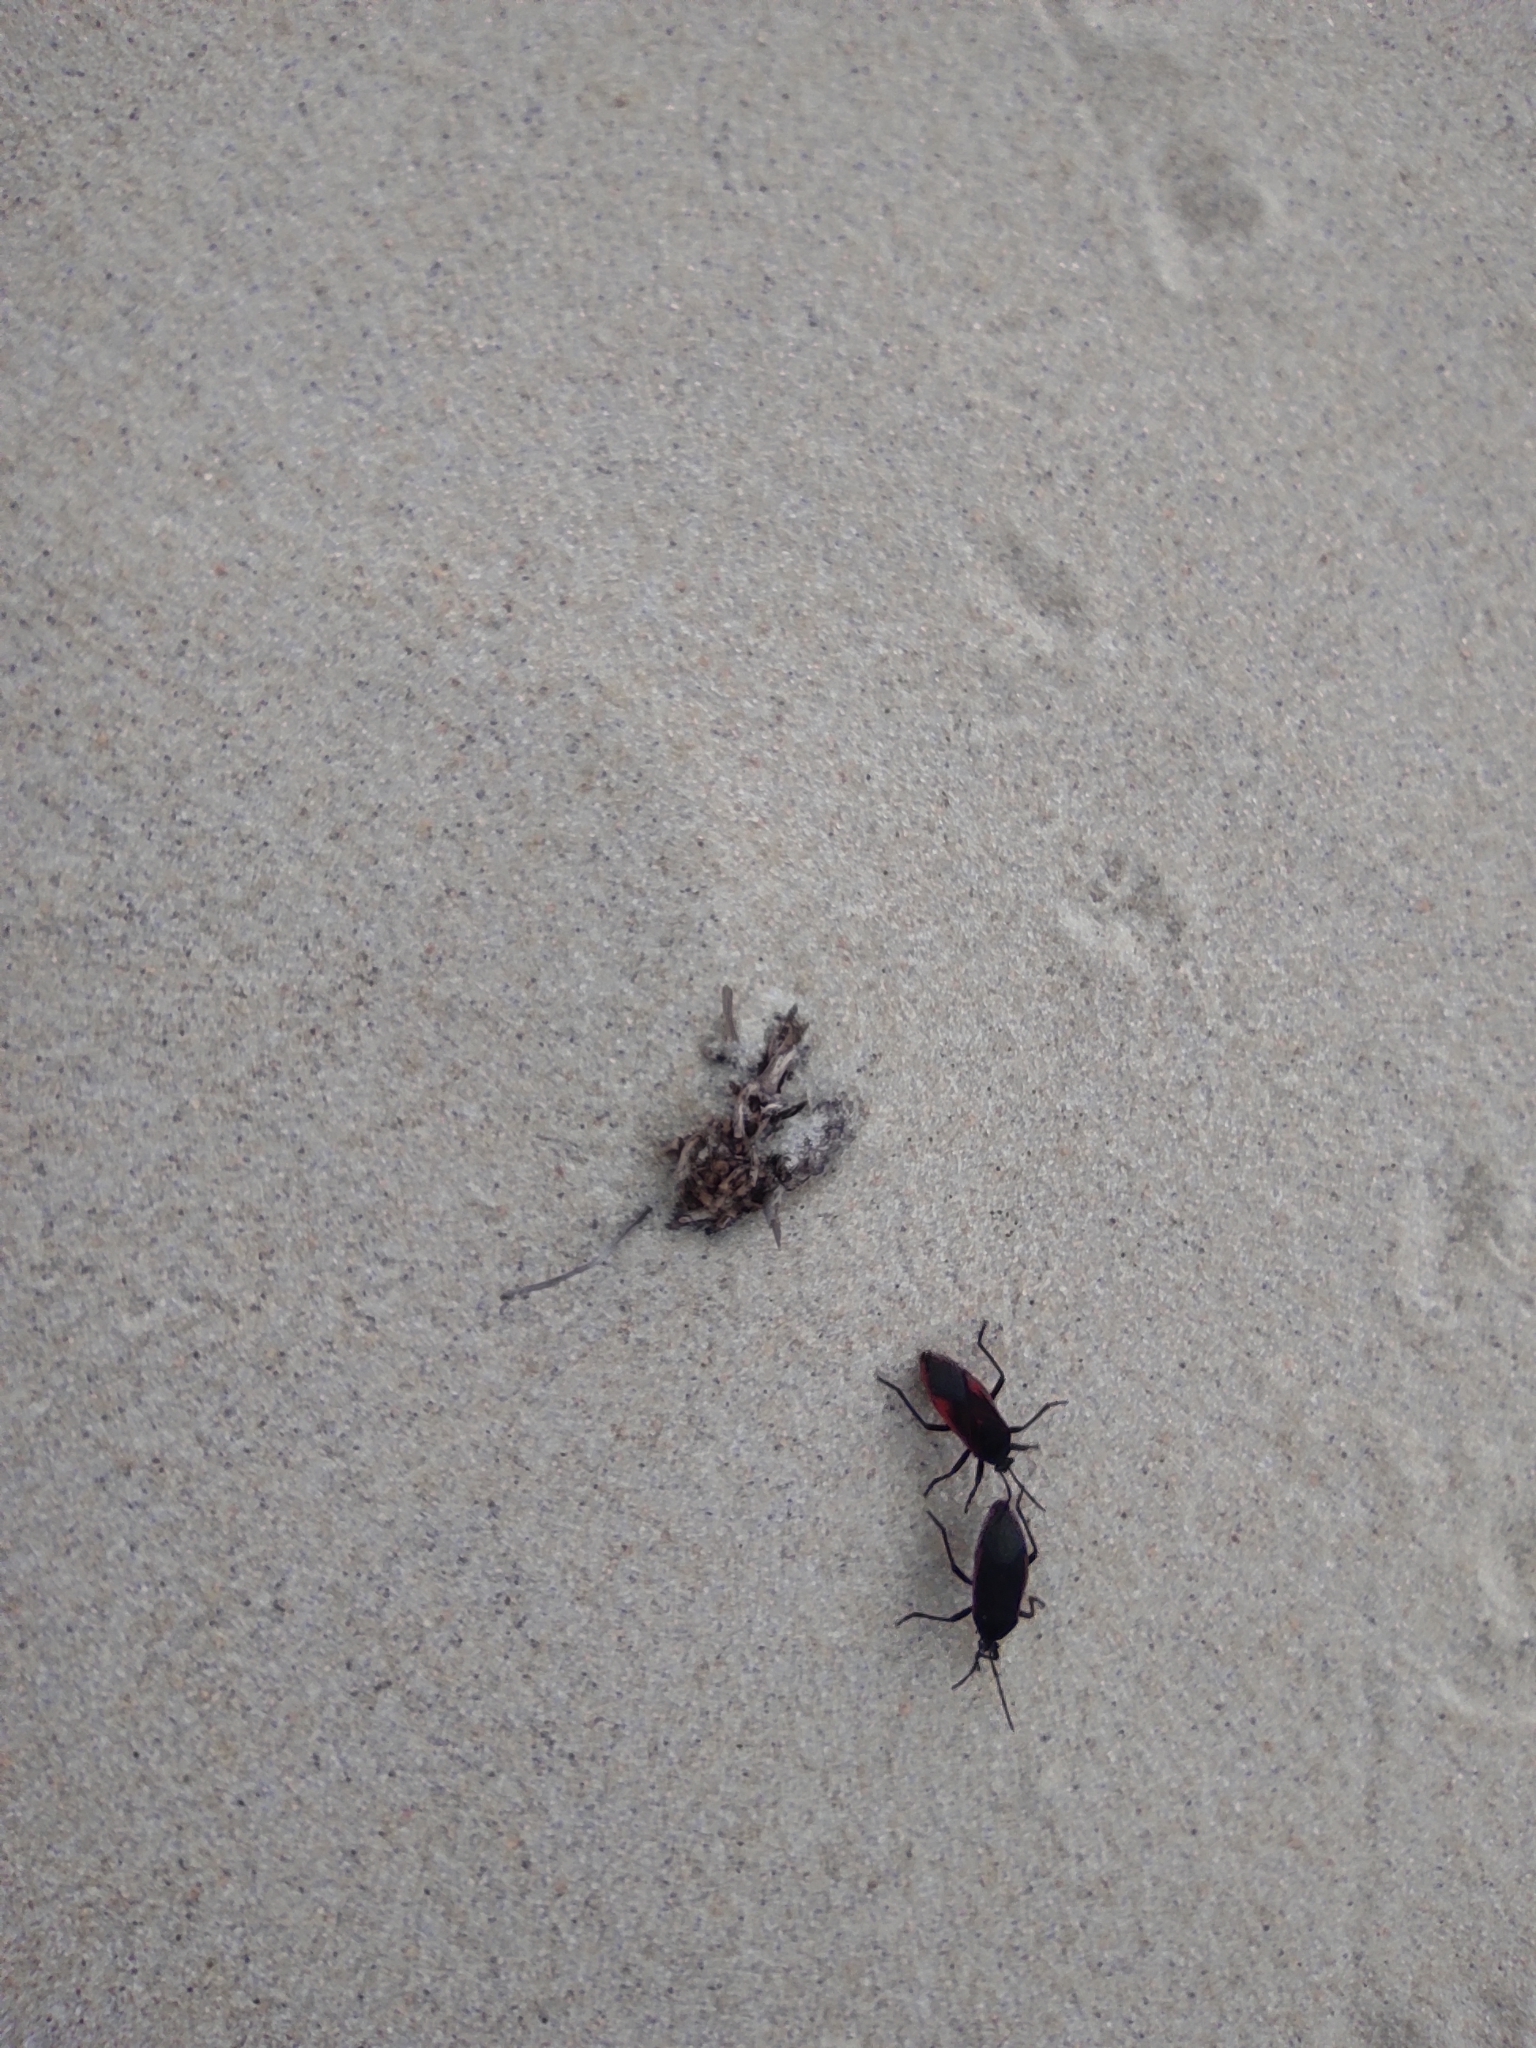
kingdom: Animalia
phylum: Arthropoda
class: Insecta
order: Hemiptera
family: Largidae
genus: Largus
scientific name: Largus rufipennis
